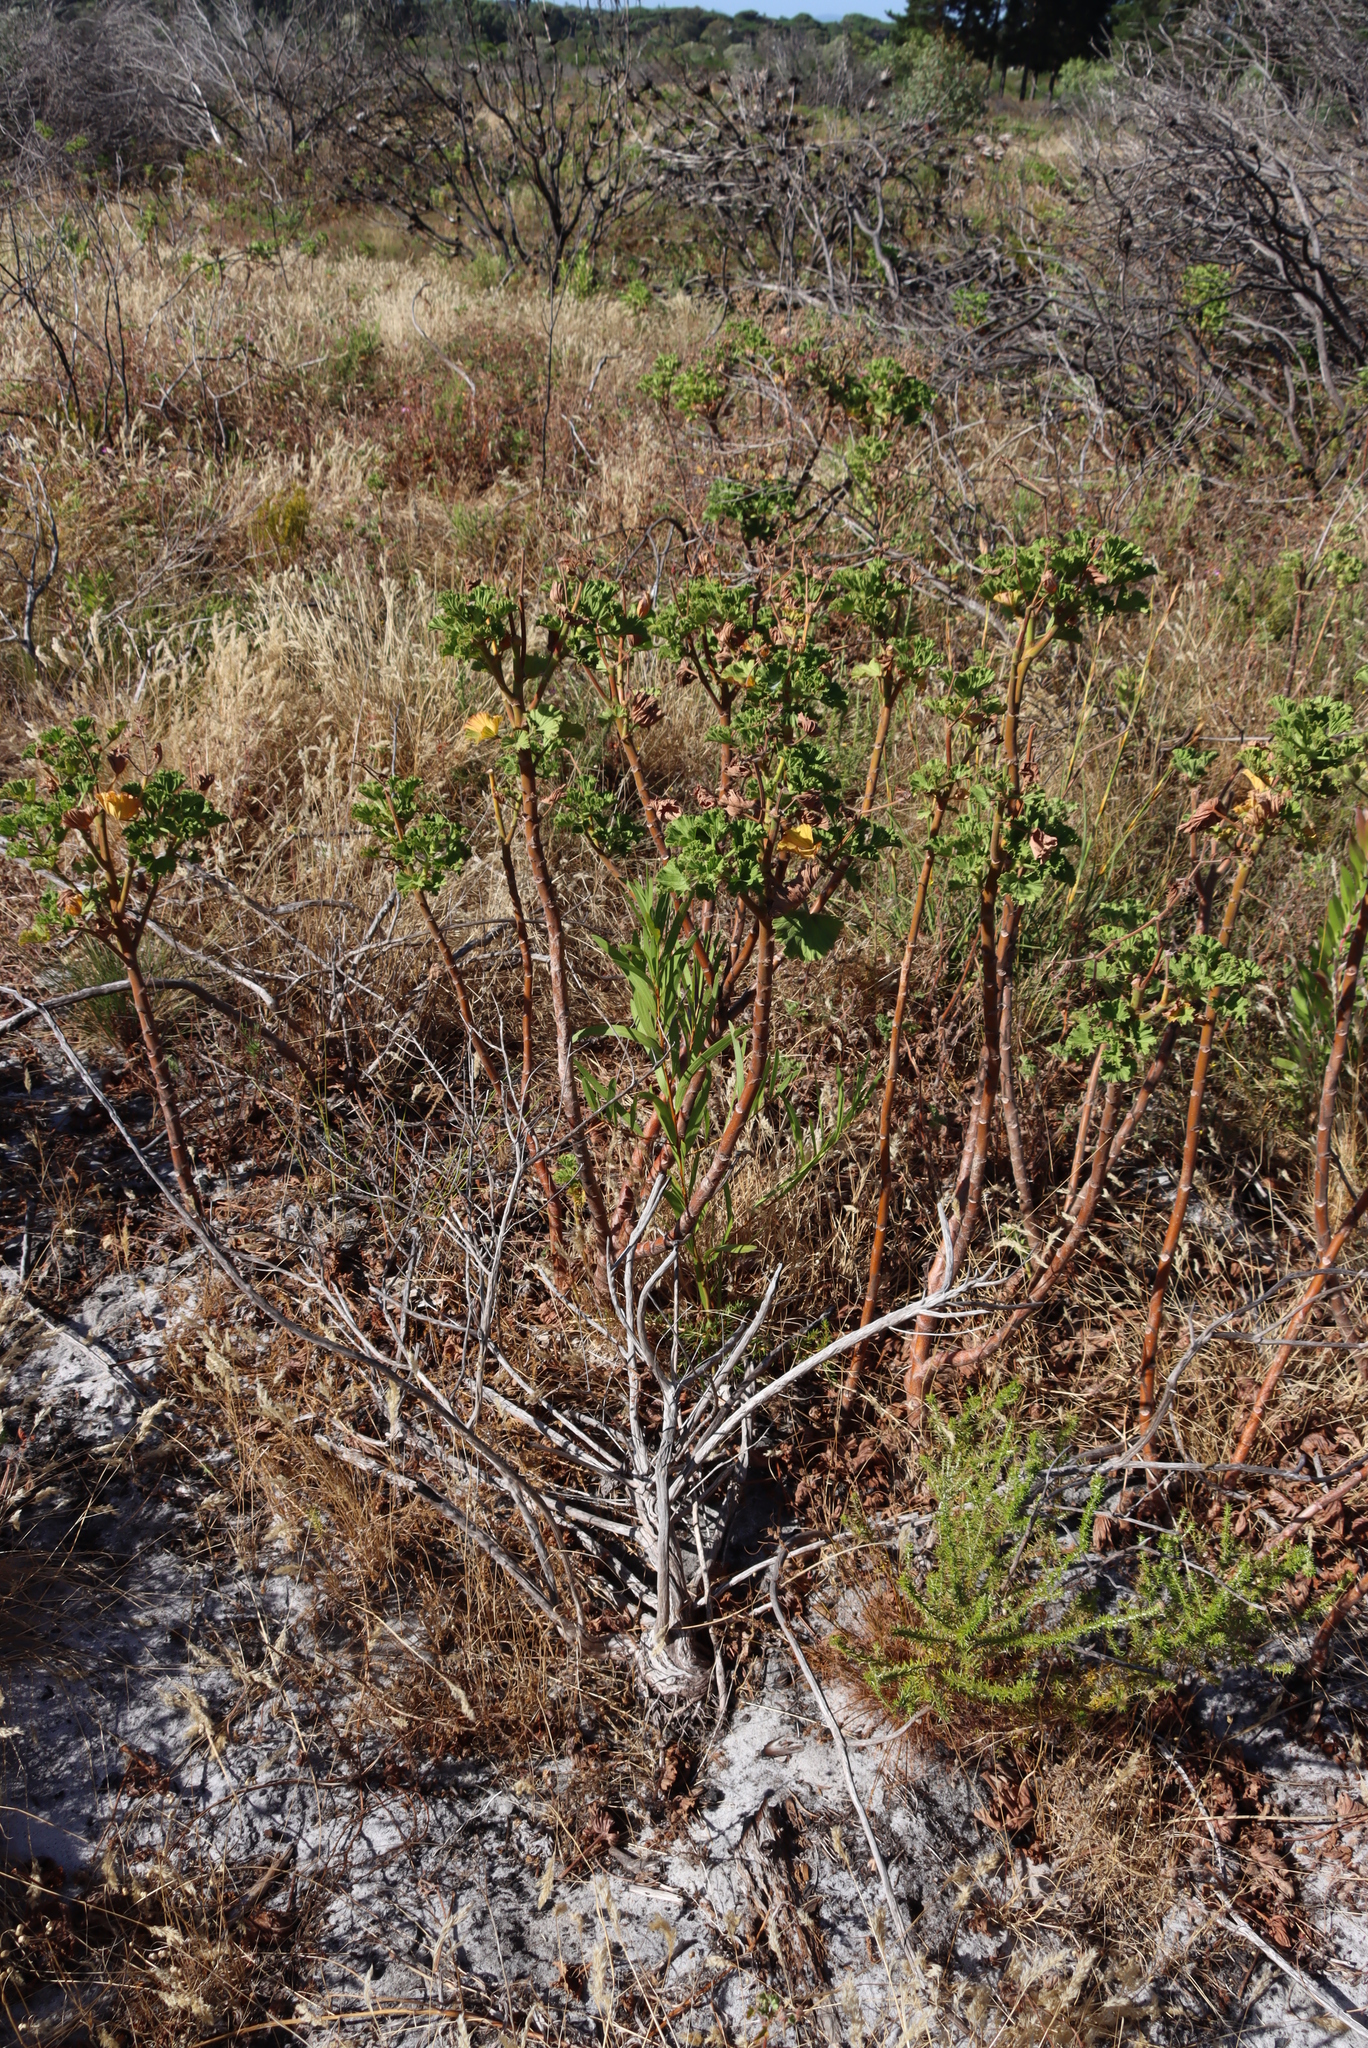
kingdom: Plantae
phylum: Tracheophyta
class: Magnoliopsida
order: Geraniales
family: Geraniaceae
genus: Pelargonium
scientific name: Pelargonium cucullatum
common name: Tree pelargonium
